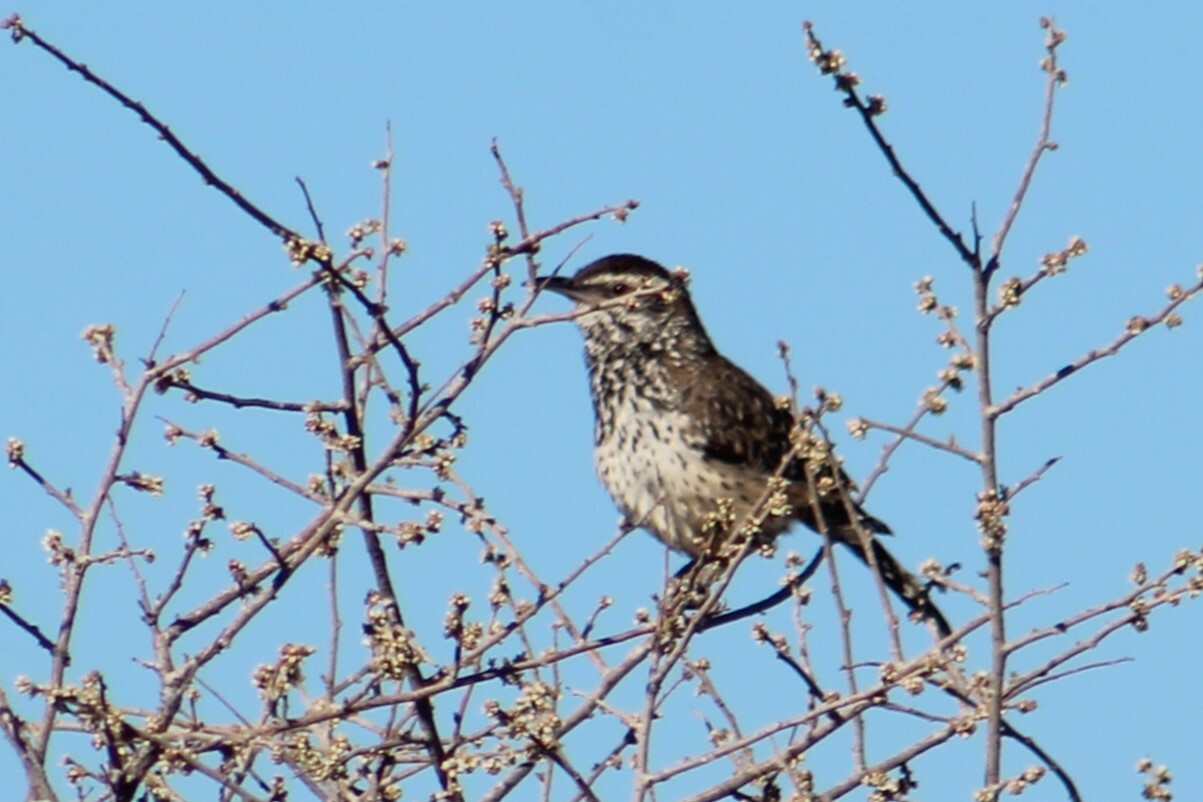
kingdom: Animalia
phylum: Chordata
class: Aves
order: Passeriformes
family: Troglodytidae
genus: Campylorhynchus
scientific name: Campylorhynchus brunneicapillus
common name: Cactus wren
